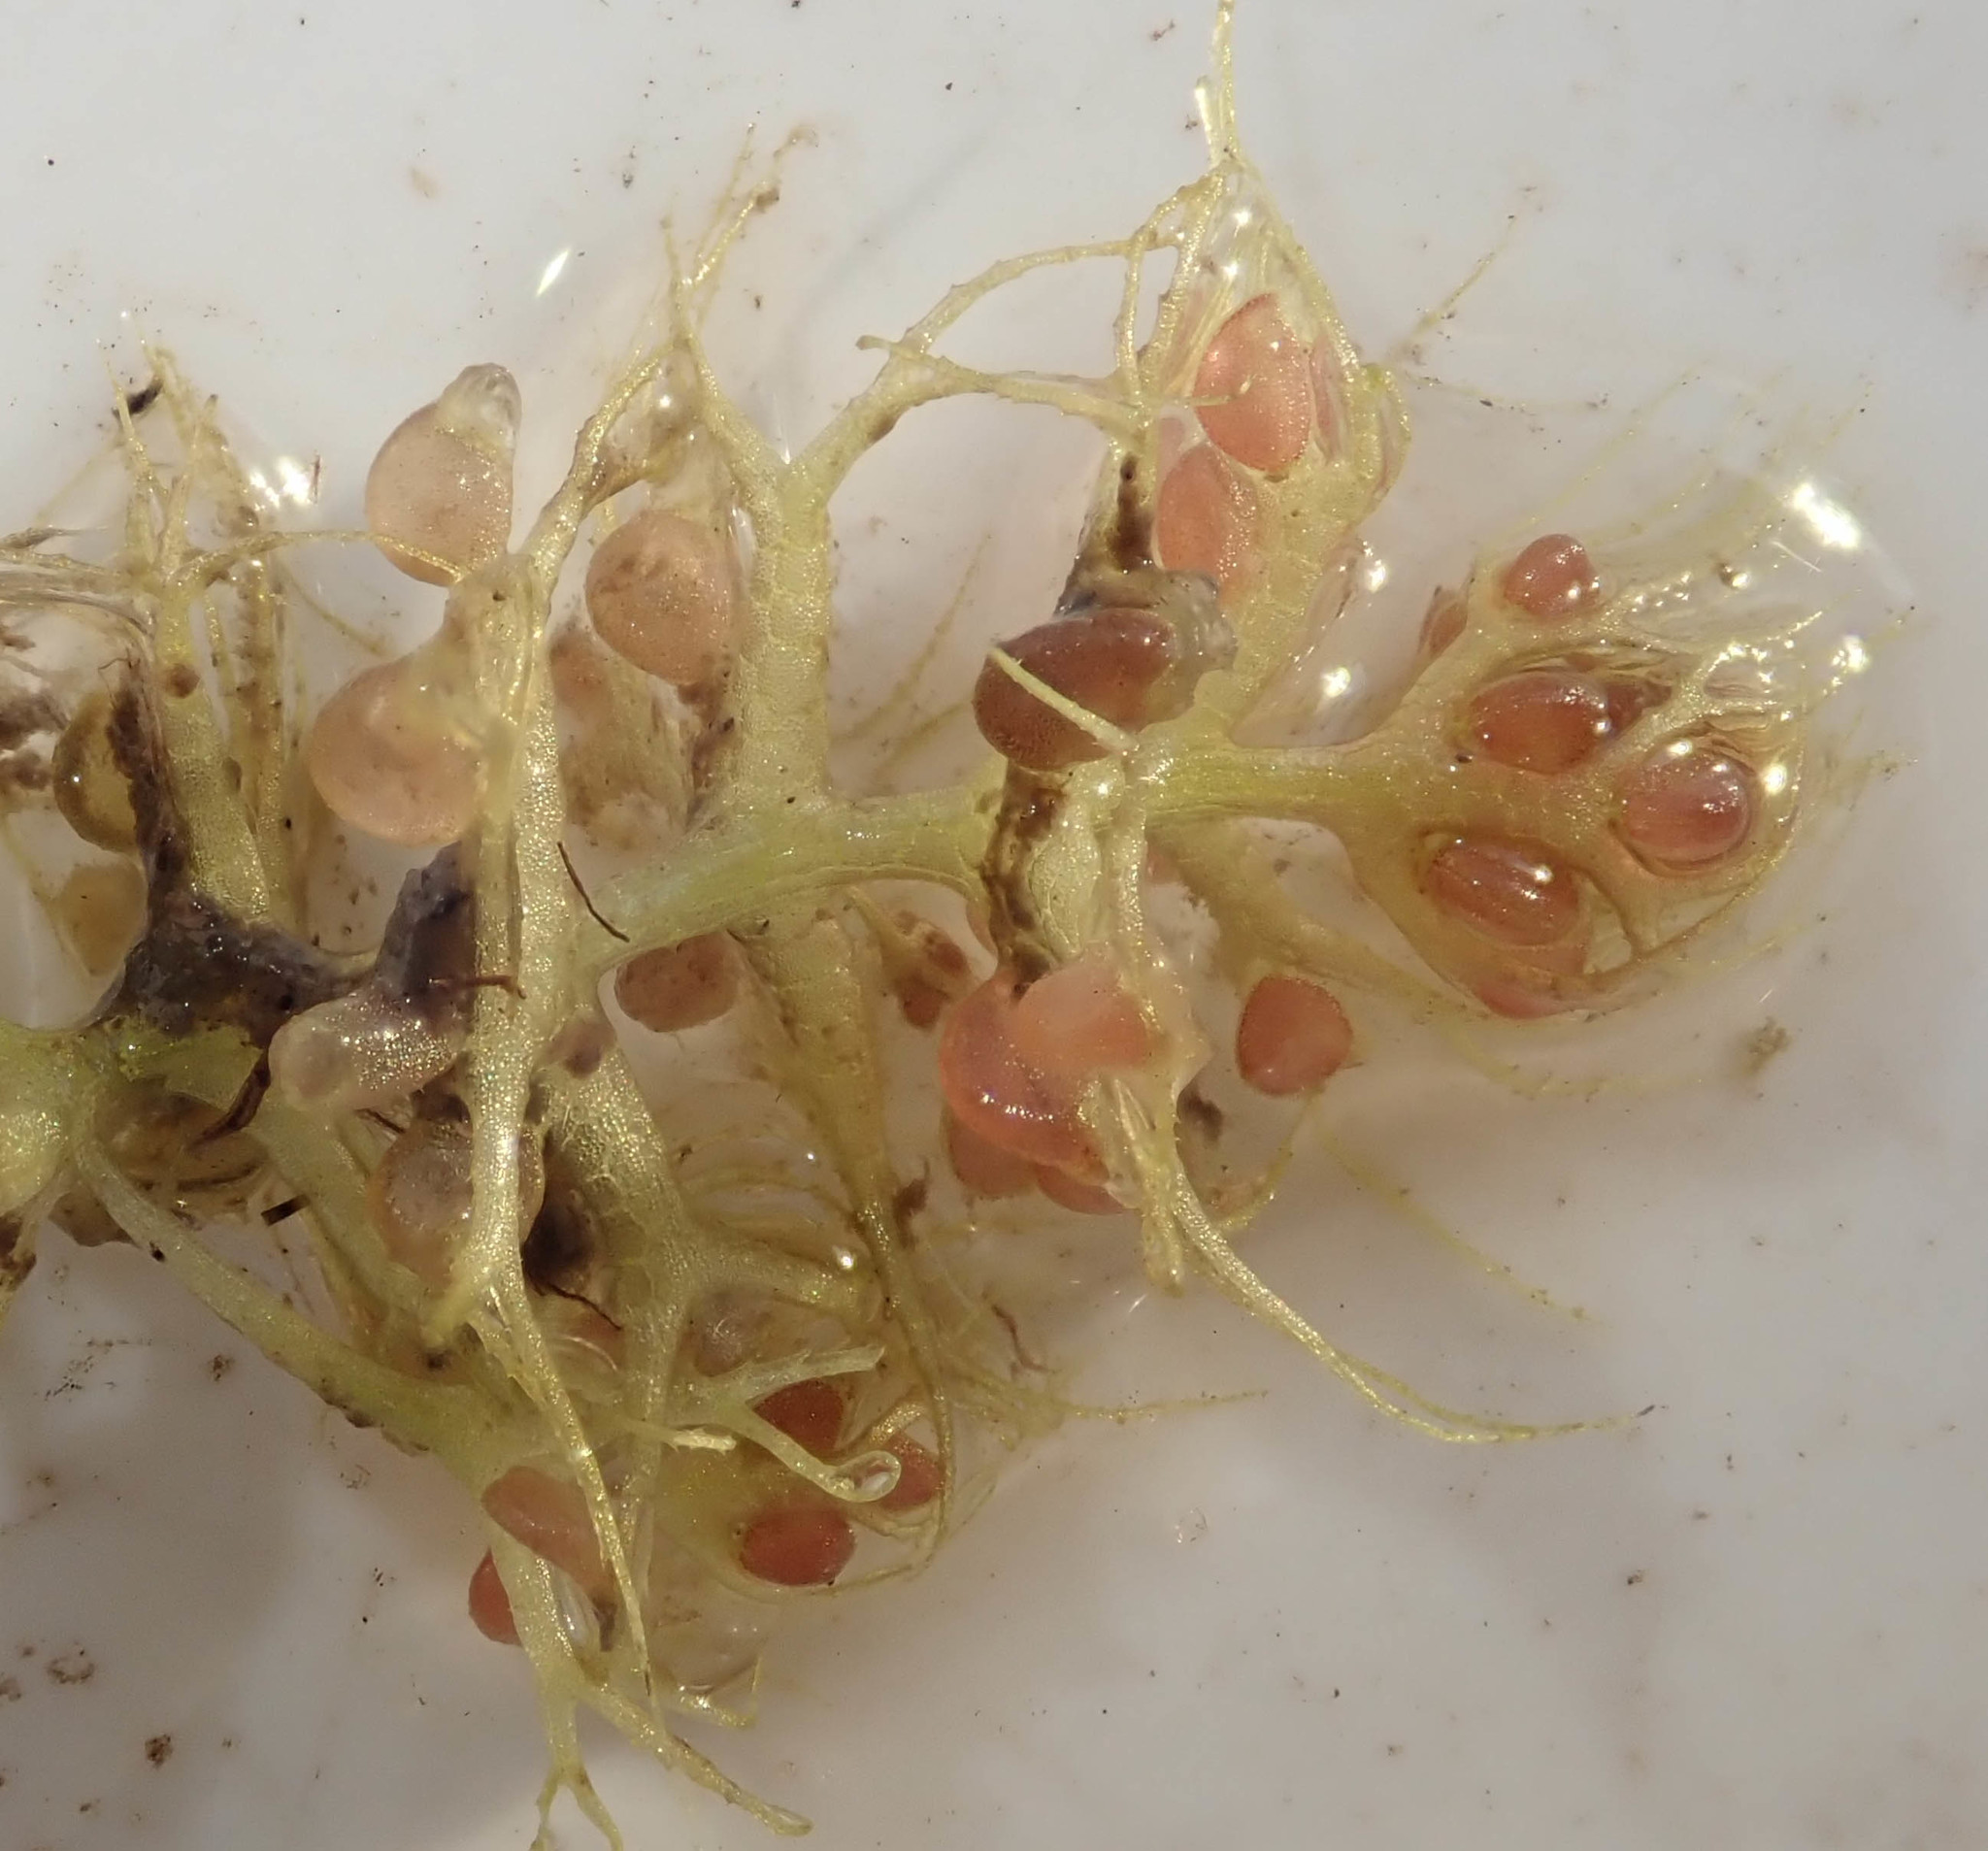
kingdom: Plantae
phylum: Tracheophyta
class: Magnoliopsida
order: Lamiales
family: Lentibulariaceae
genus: Utricularia
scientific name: Utricularia raynalii
